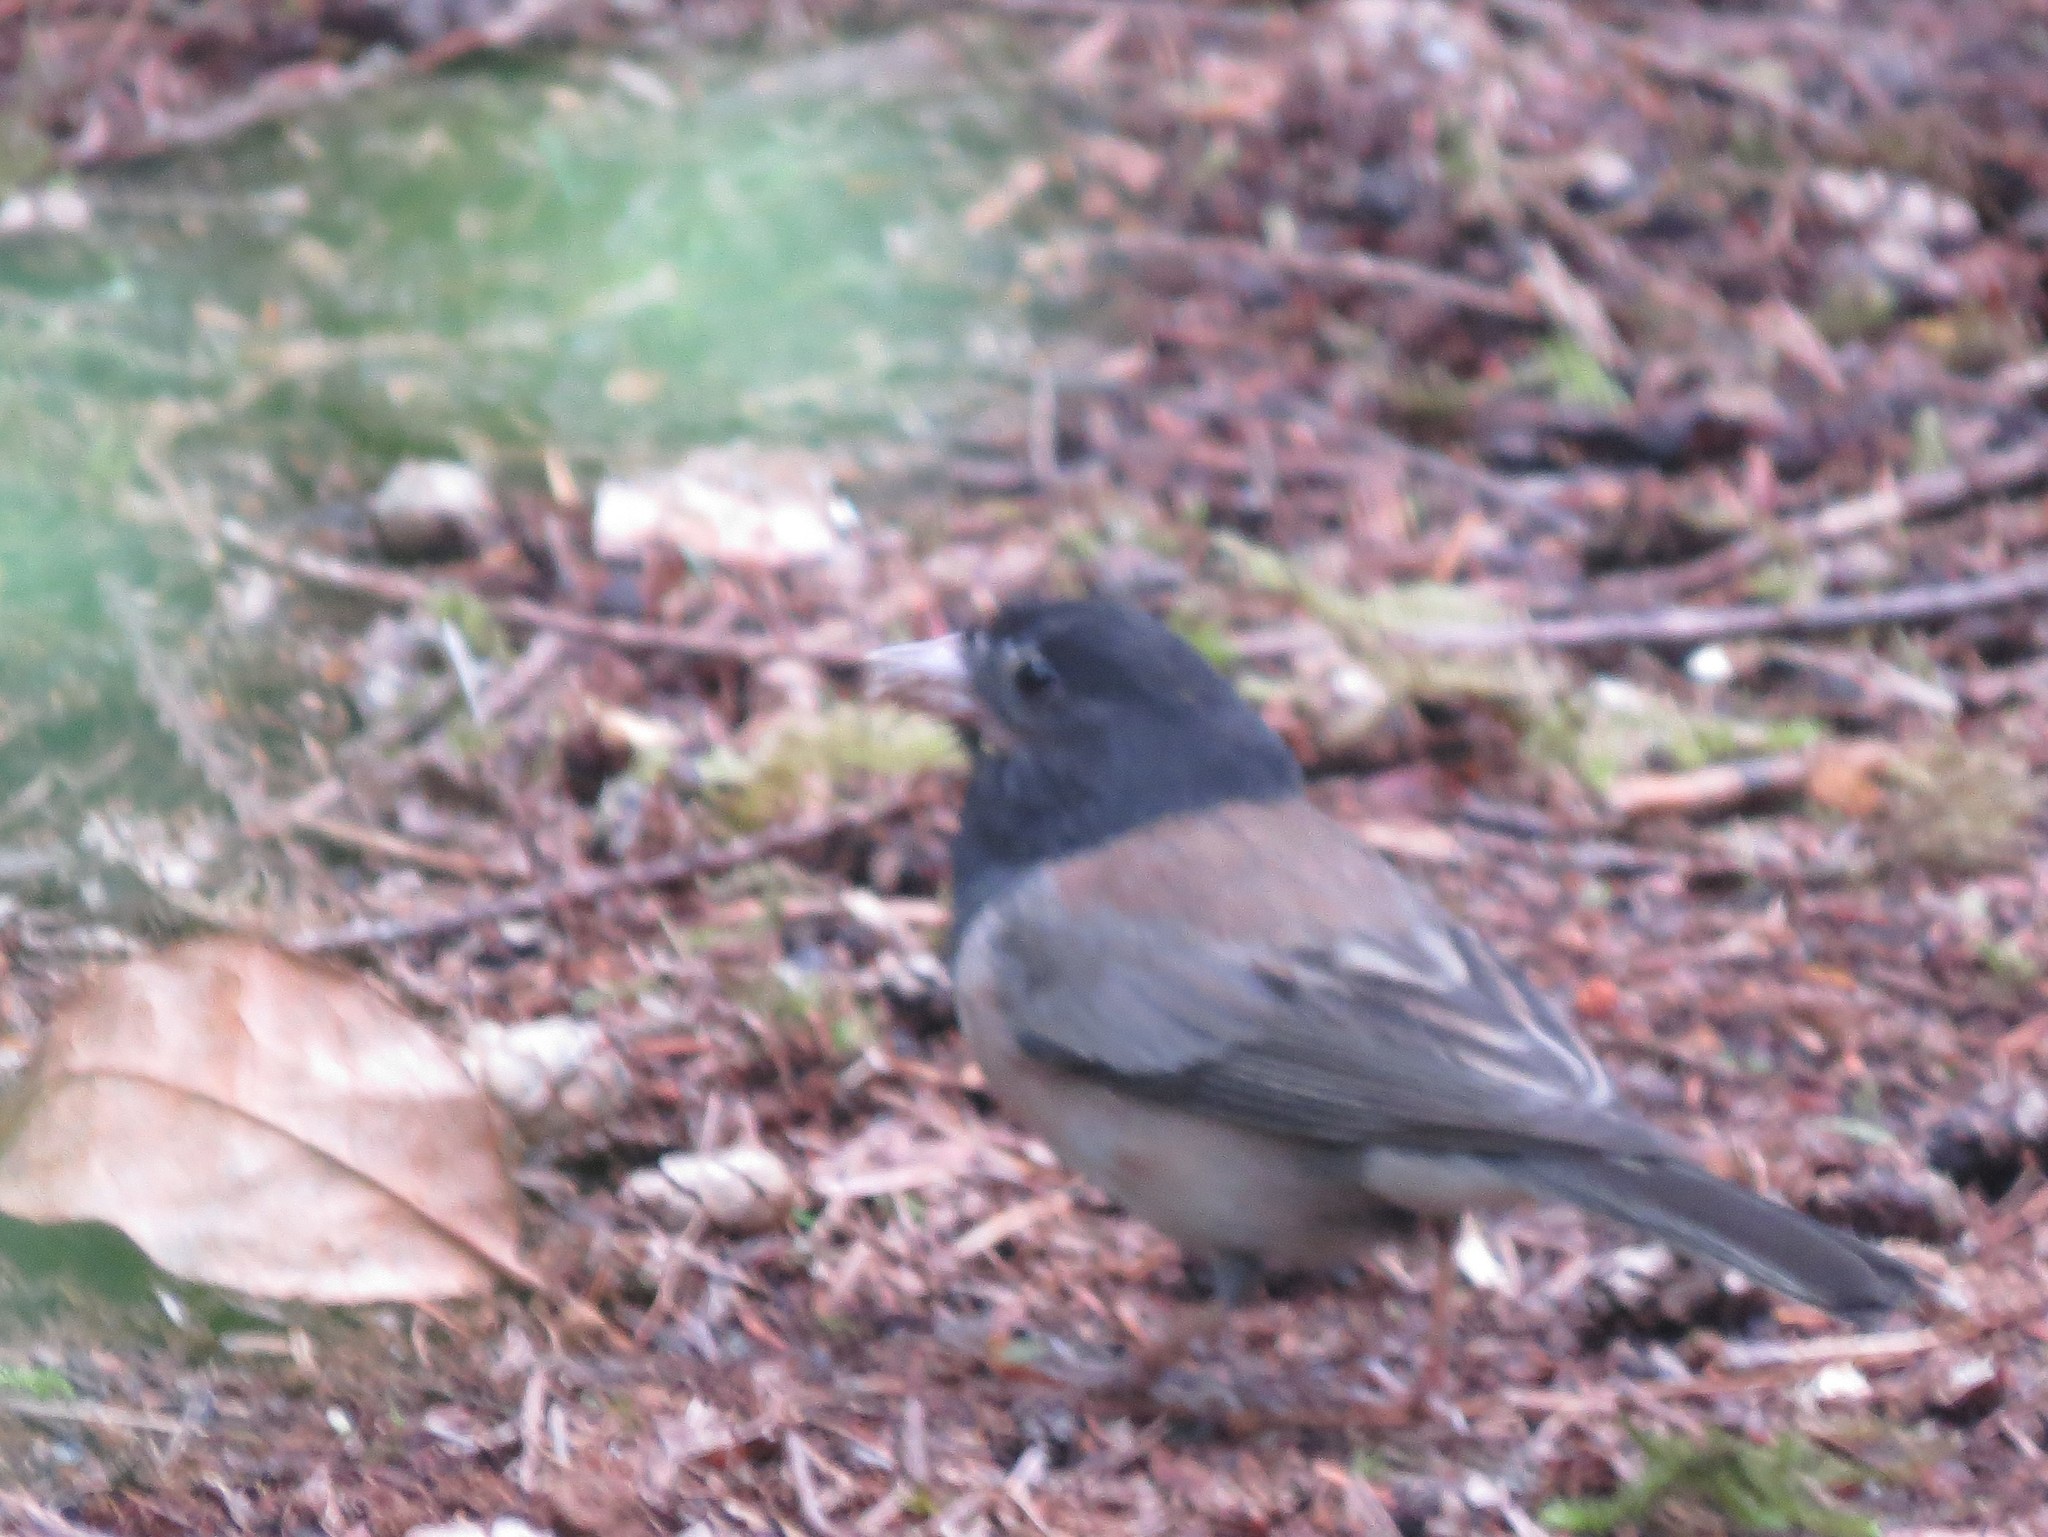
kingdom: Animalia
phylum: Chordata
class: Aves
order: Passeriformes
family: Passerellidae
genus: Junco
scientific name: Junco hyemalis
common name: Dark-eyed junco
